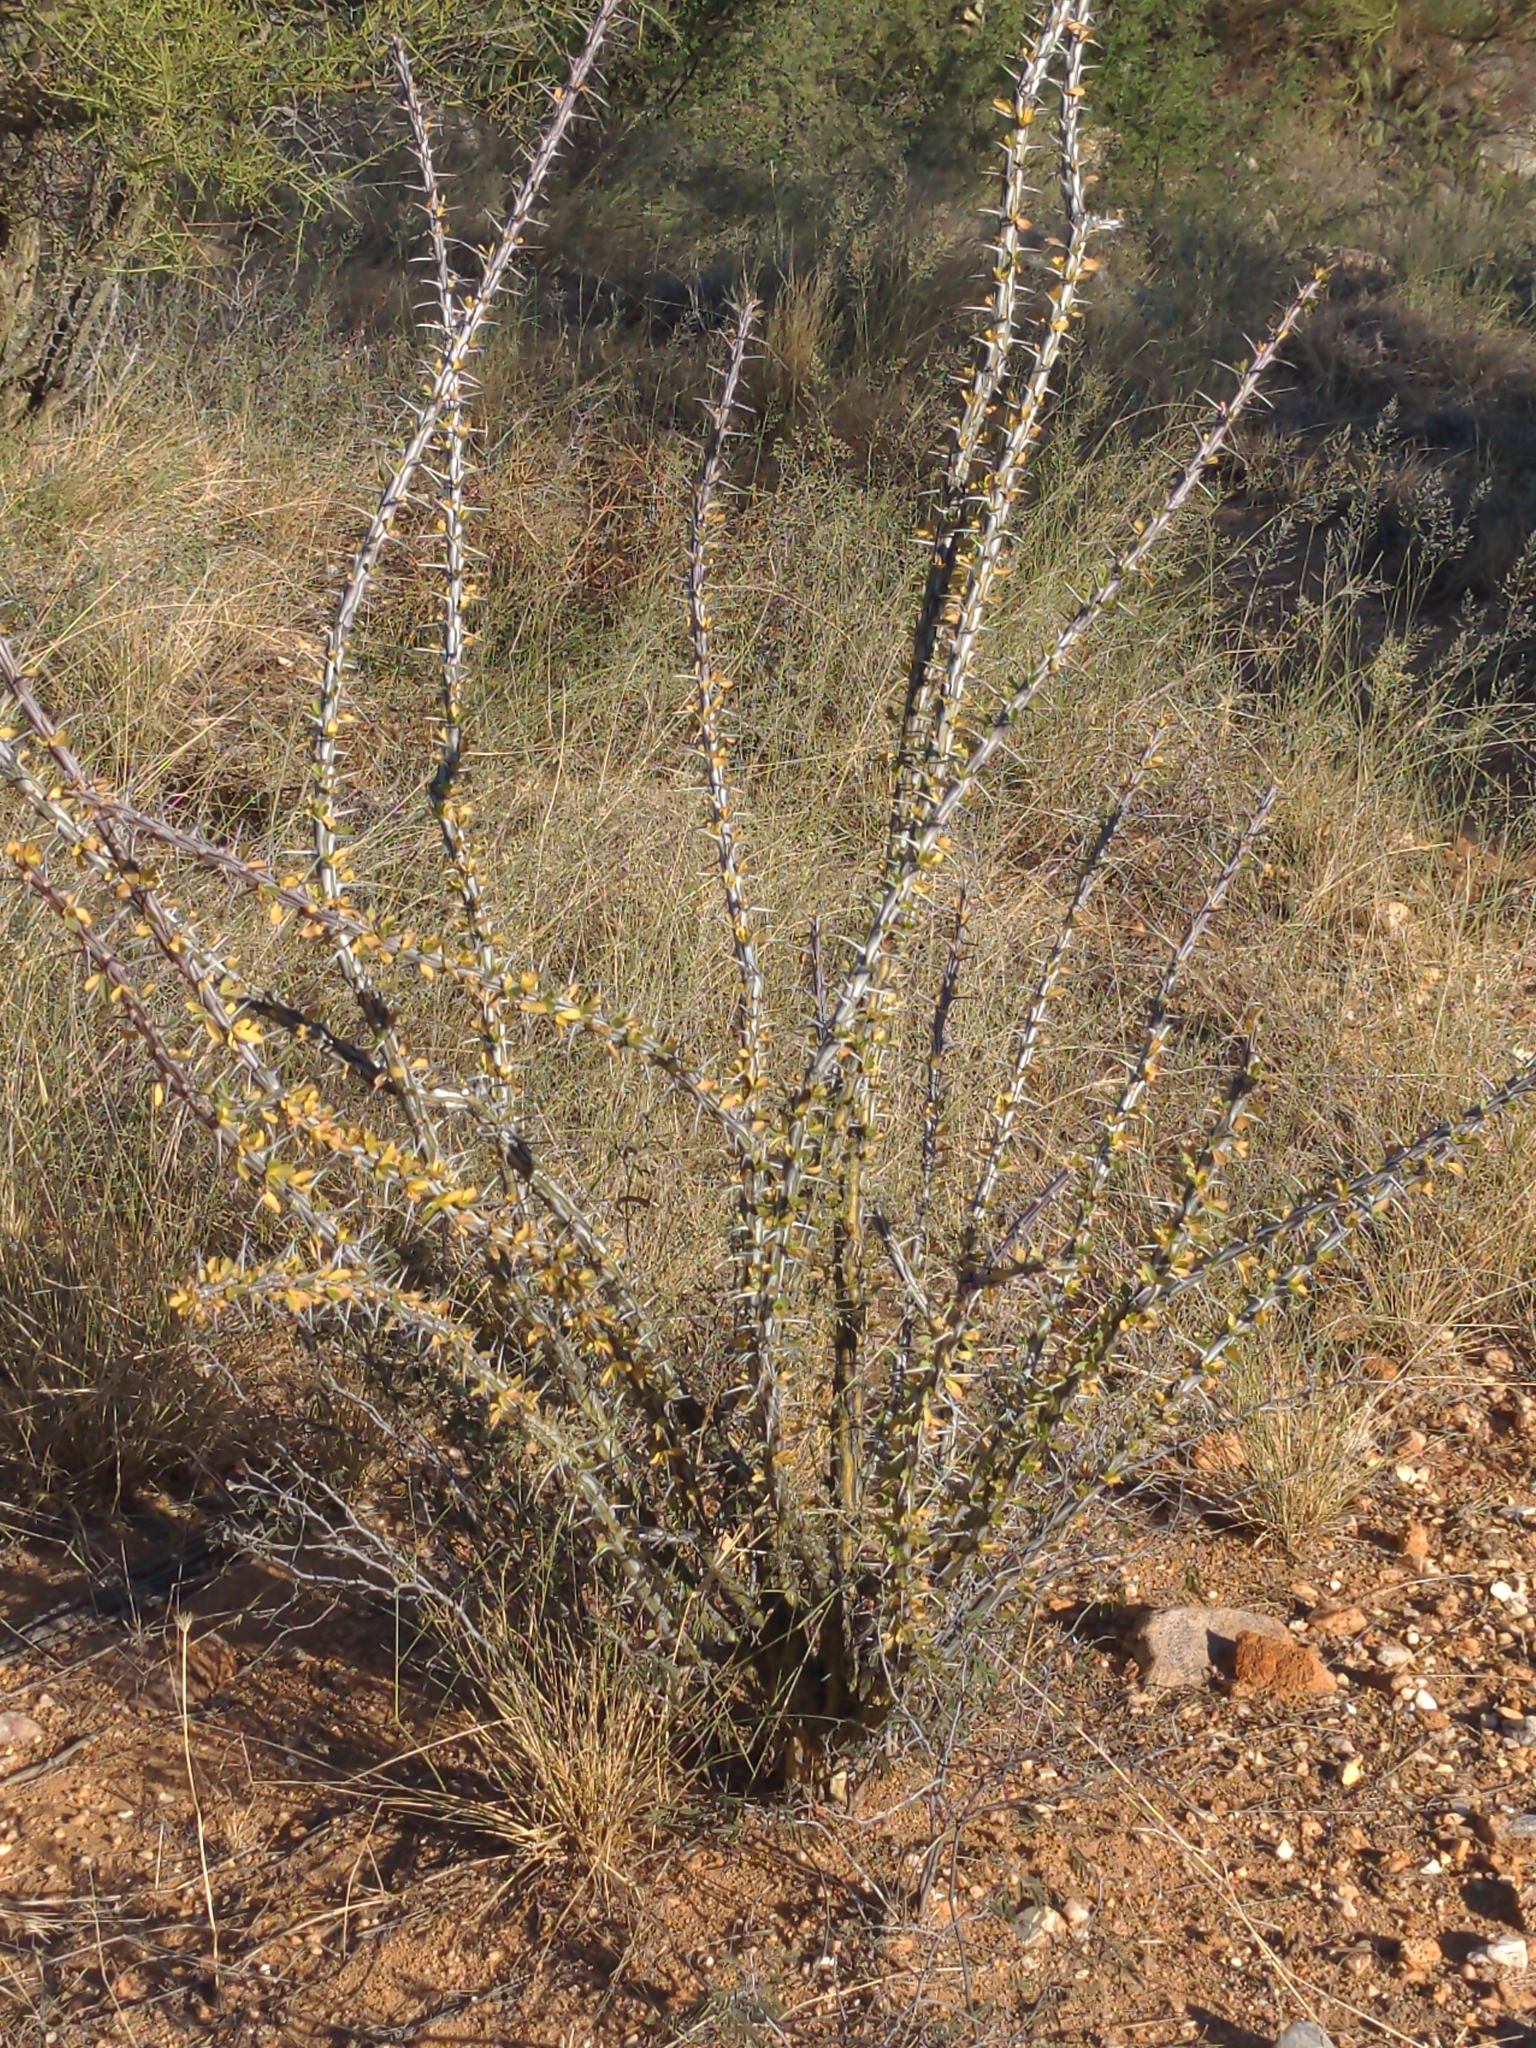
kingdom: Plantae
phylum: Tracheophyta
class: Magnoliopsida
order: Ericales
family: Fouquieriaceae
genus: Fouquieria
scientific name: Fouquieria splendens
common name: Vine-cactus
